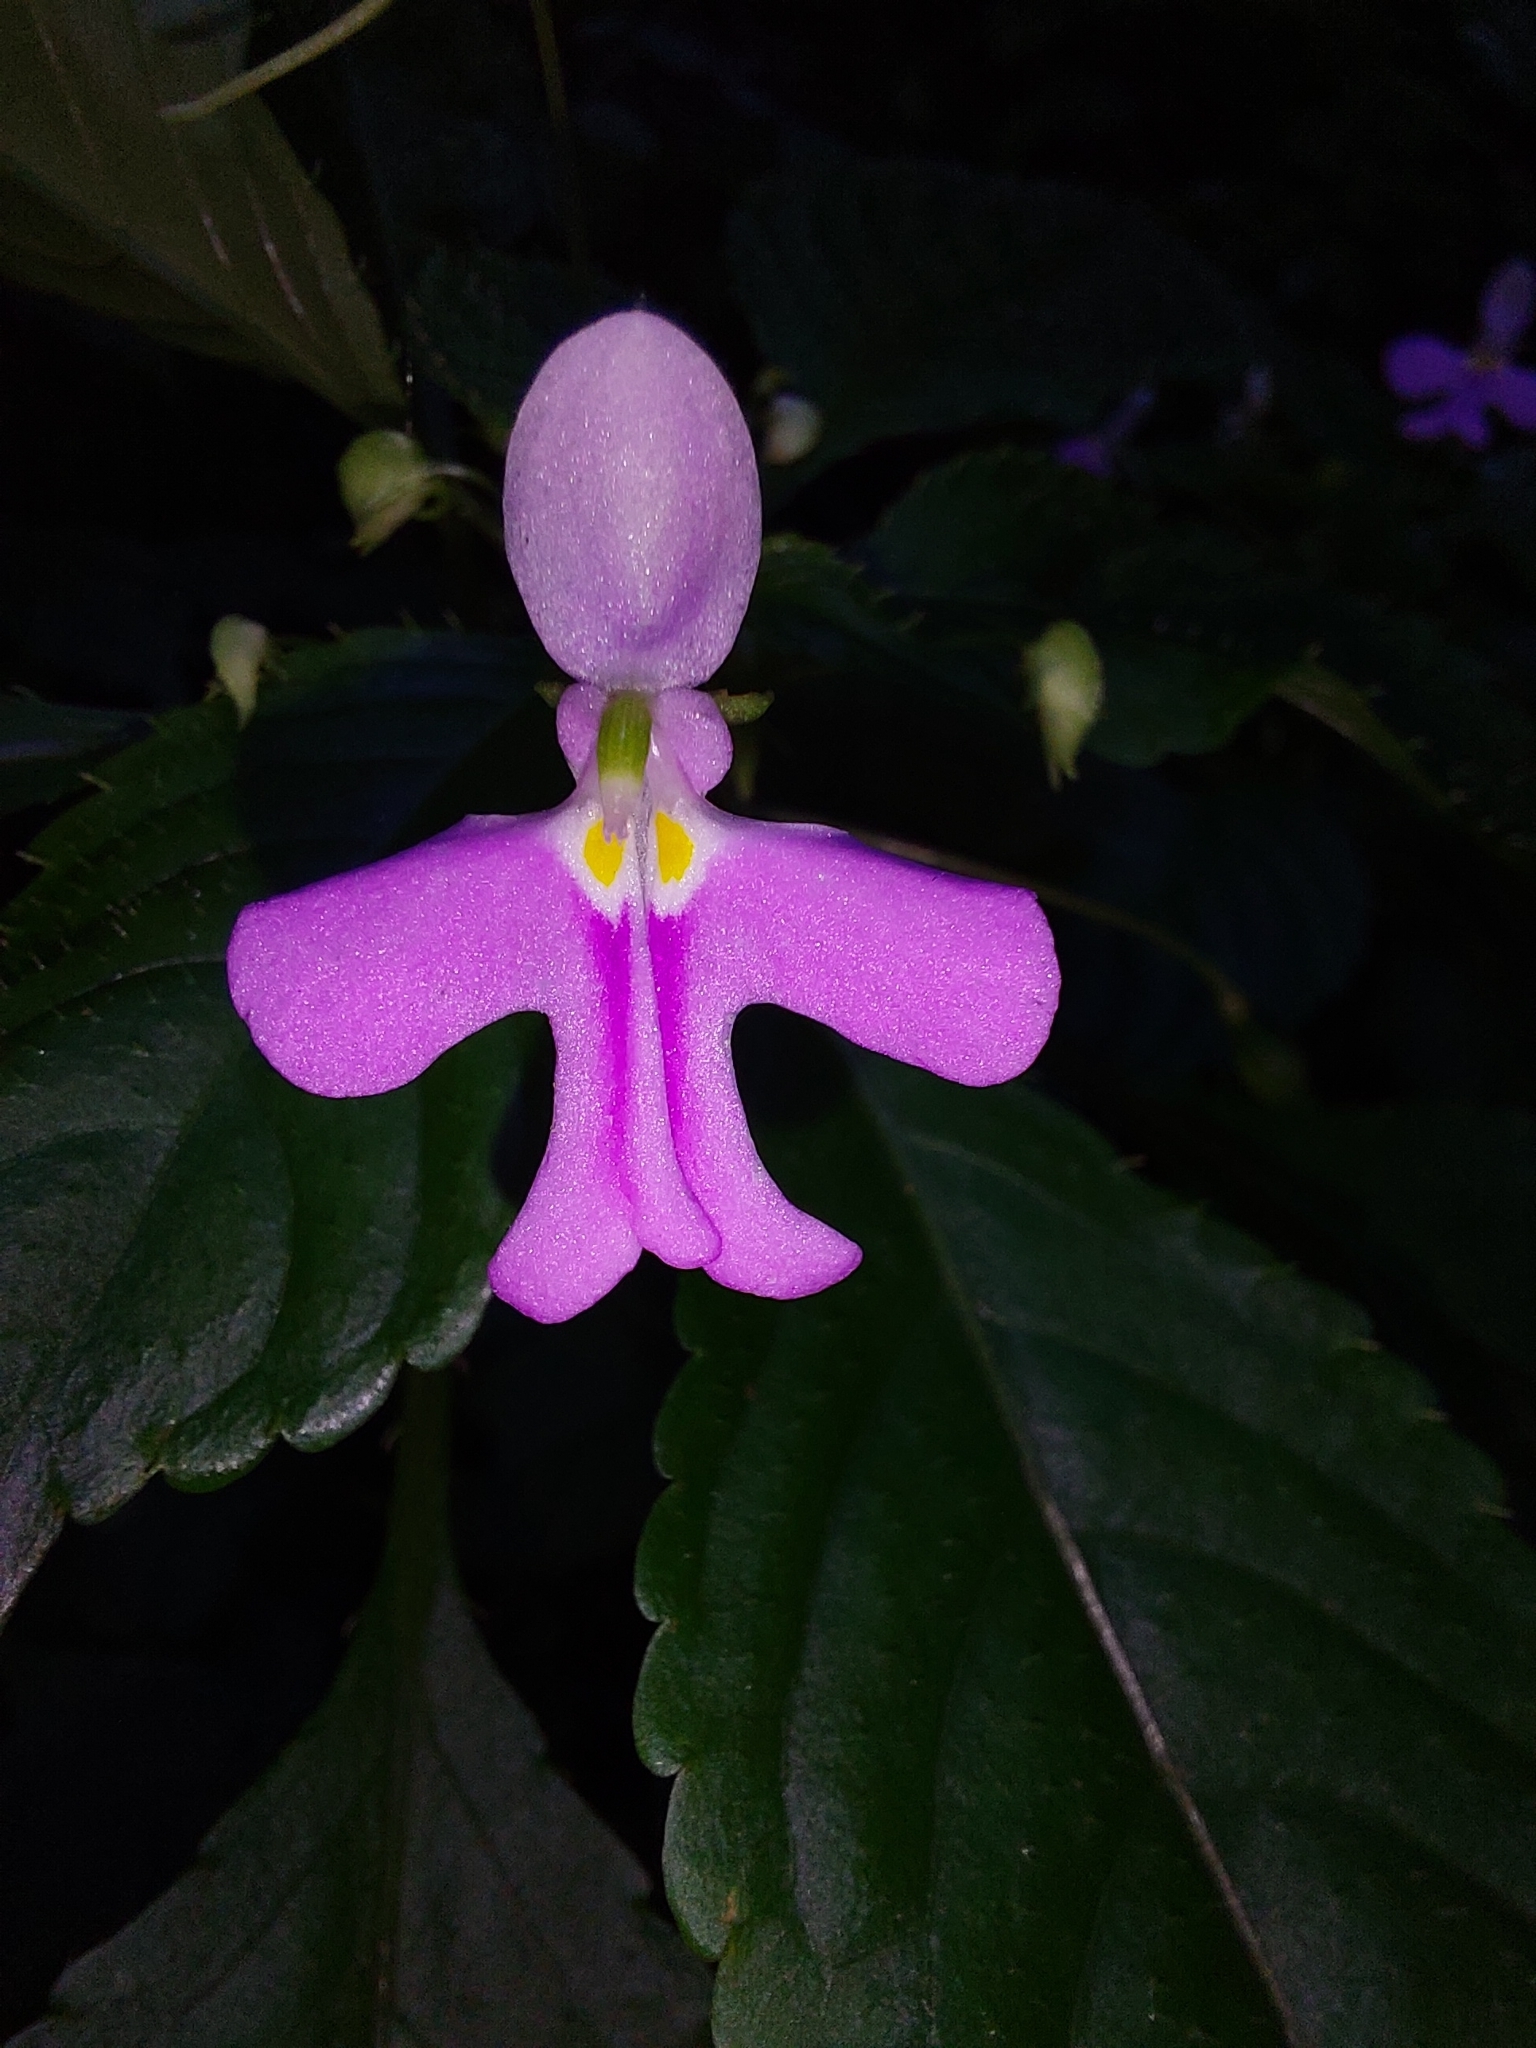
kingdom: Plantae
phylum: Tracheophyta
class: Magnoliopsida
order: Ericales
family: Balsaminaceae
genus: Impatiens
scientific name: Impatiens hochstetteri
